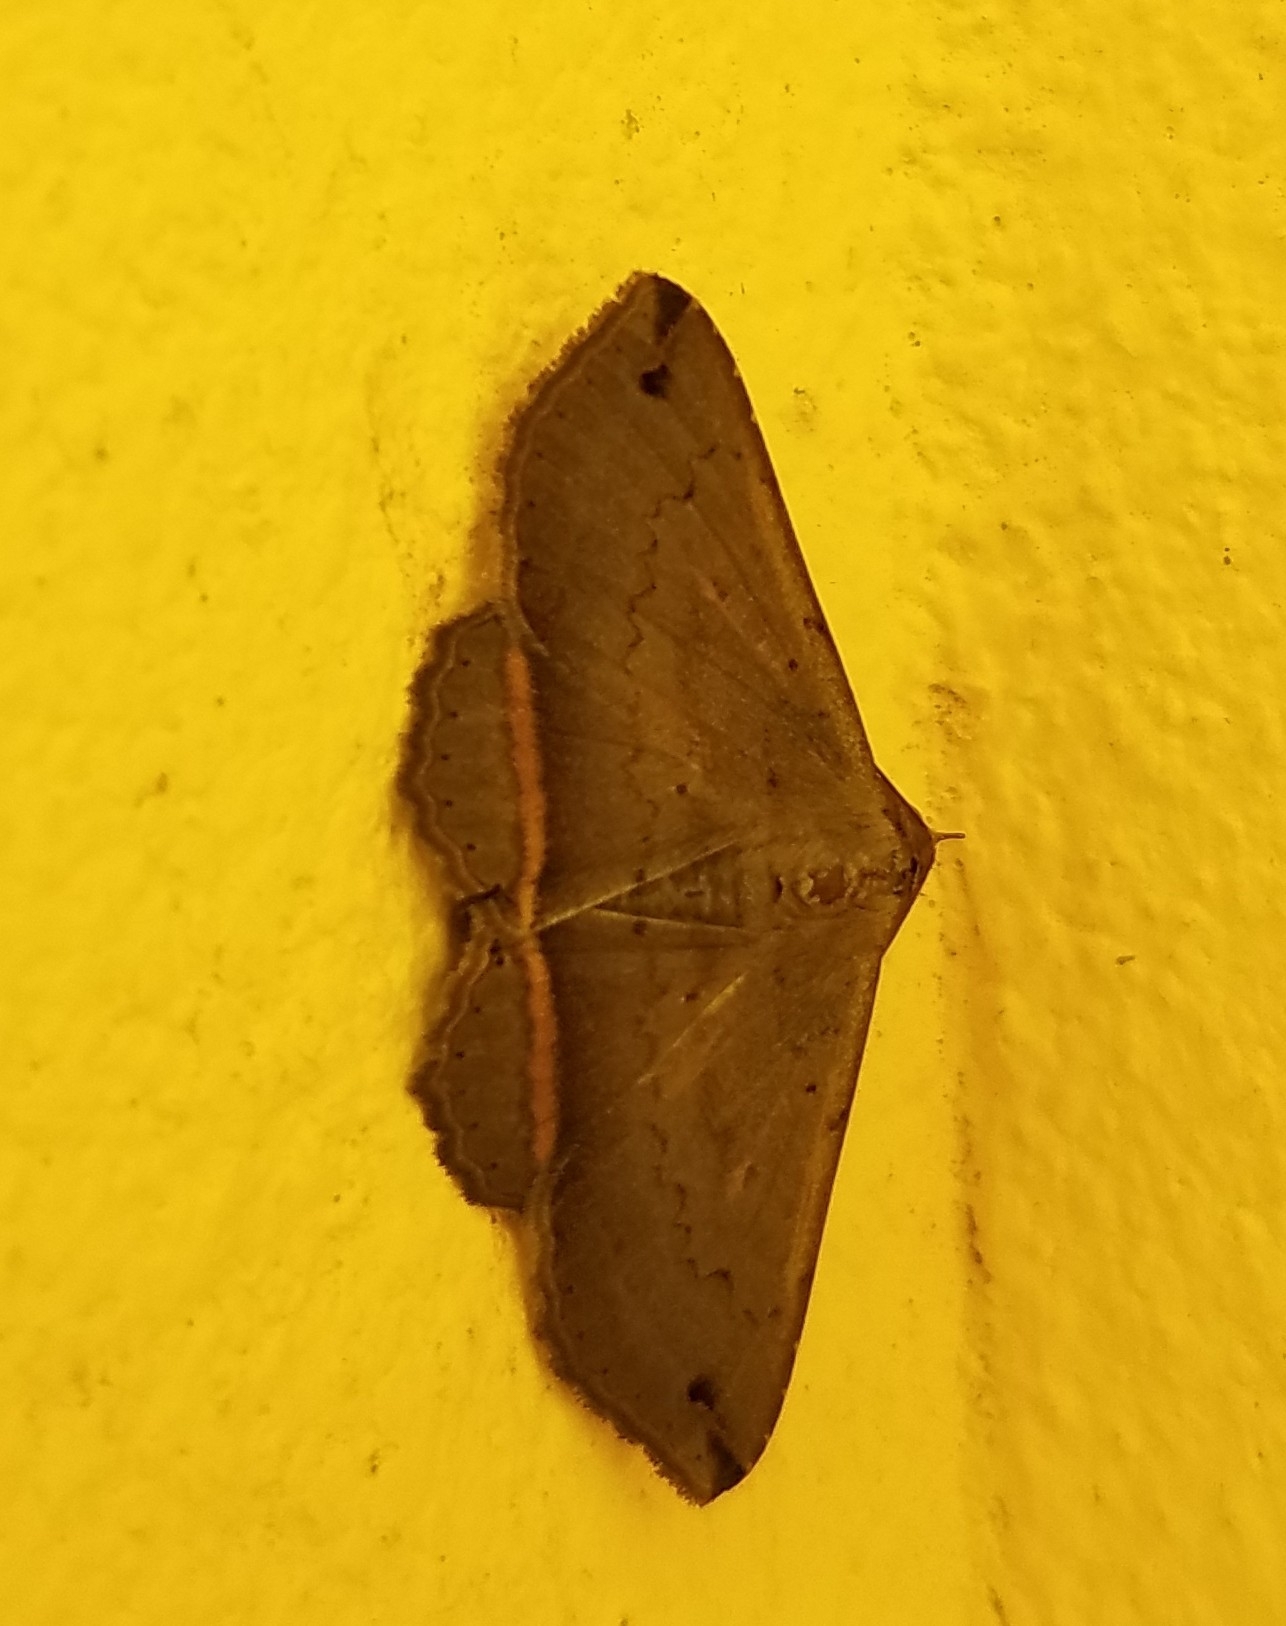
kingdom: Animalia
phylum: Arthropoda
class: Insecta
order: Lepidoptera
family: Erebidae
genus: Lesmone
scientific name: Lesmone formularis
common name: Lesmone moth
